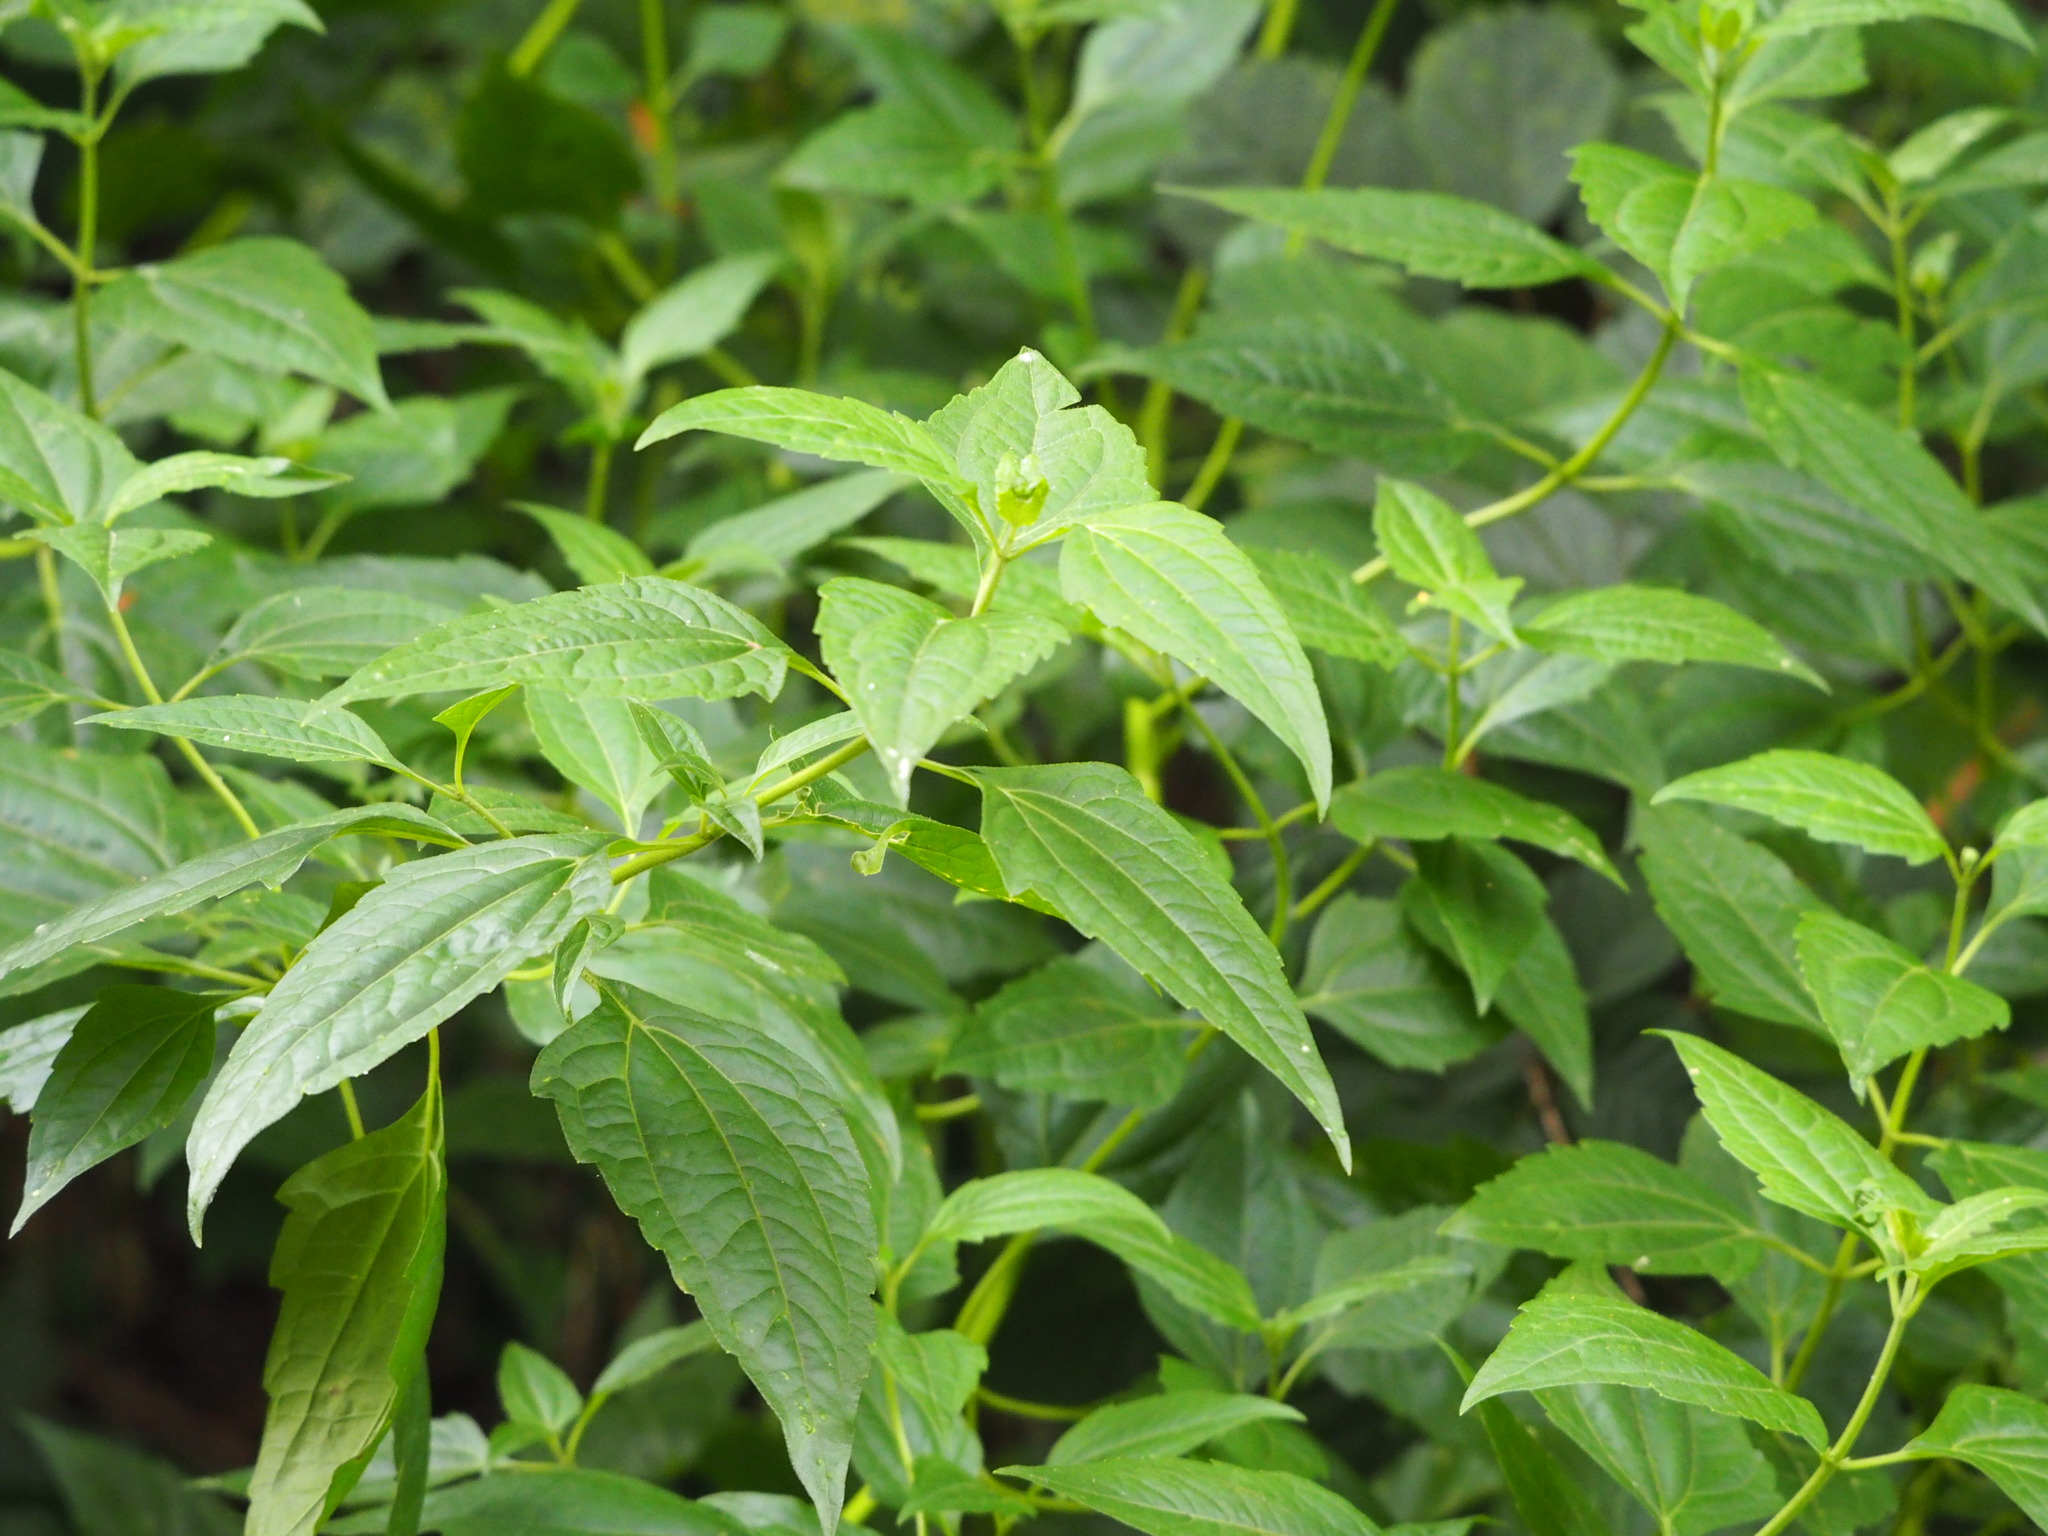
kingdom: Plantae
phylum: Tracheophyta
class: Magnoliopsida
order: Asterales
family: Asteraceae
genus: Chromolaena
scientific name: Chromolaena odorata
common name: Siamweed
